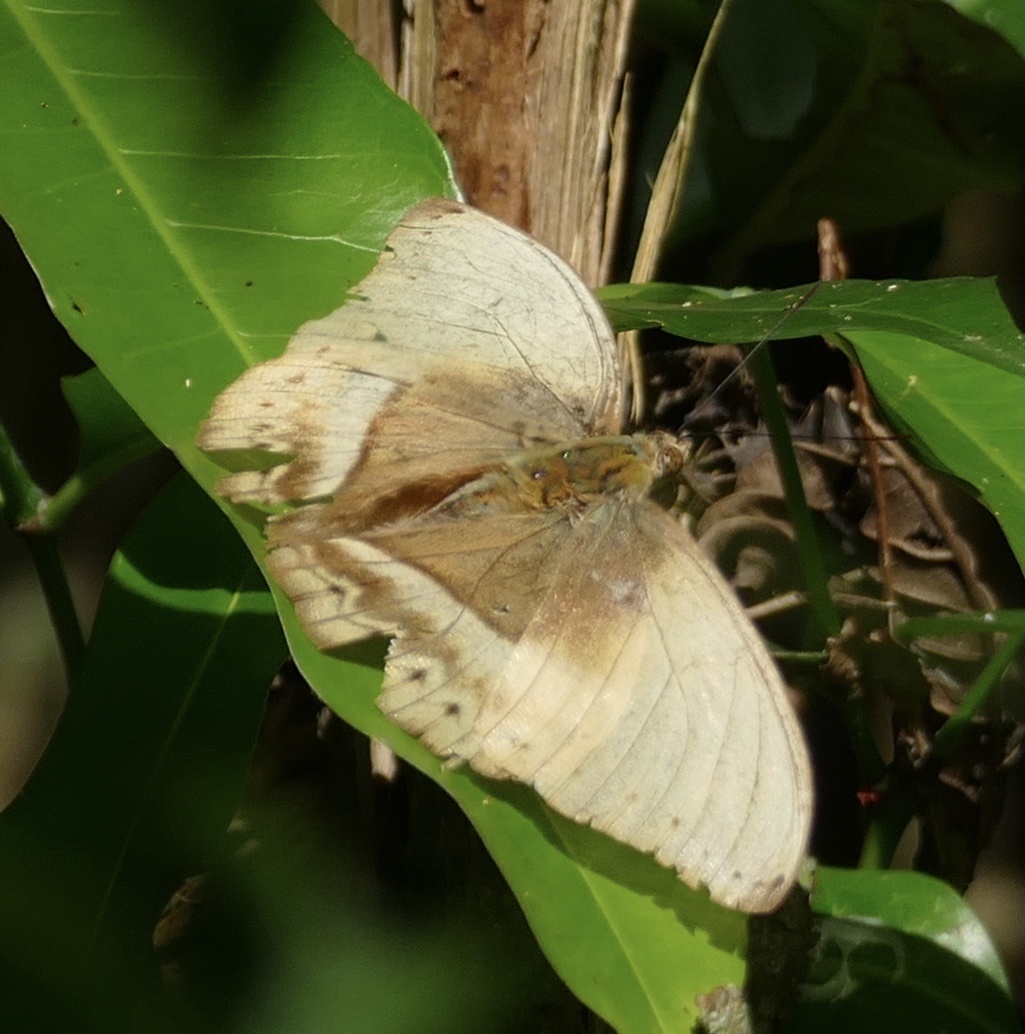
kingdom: Animalia
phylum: Arthropoda
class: Insecta
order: Lepidoptera
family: Nymphalidae
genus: Cymothoe
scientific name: Cymothoe egesta
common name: Common yellow glider
